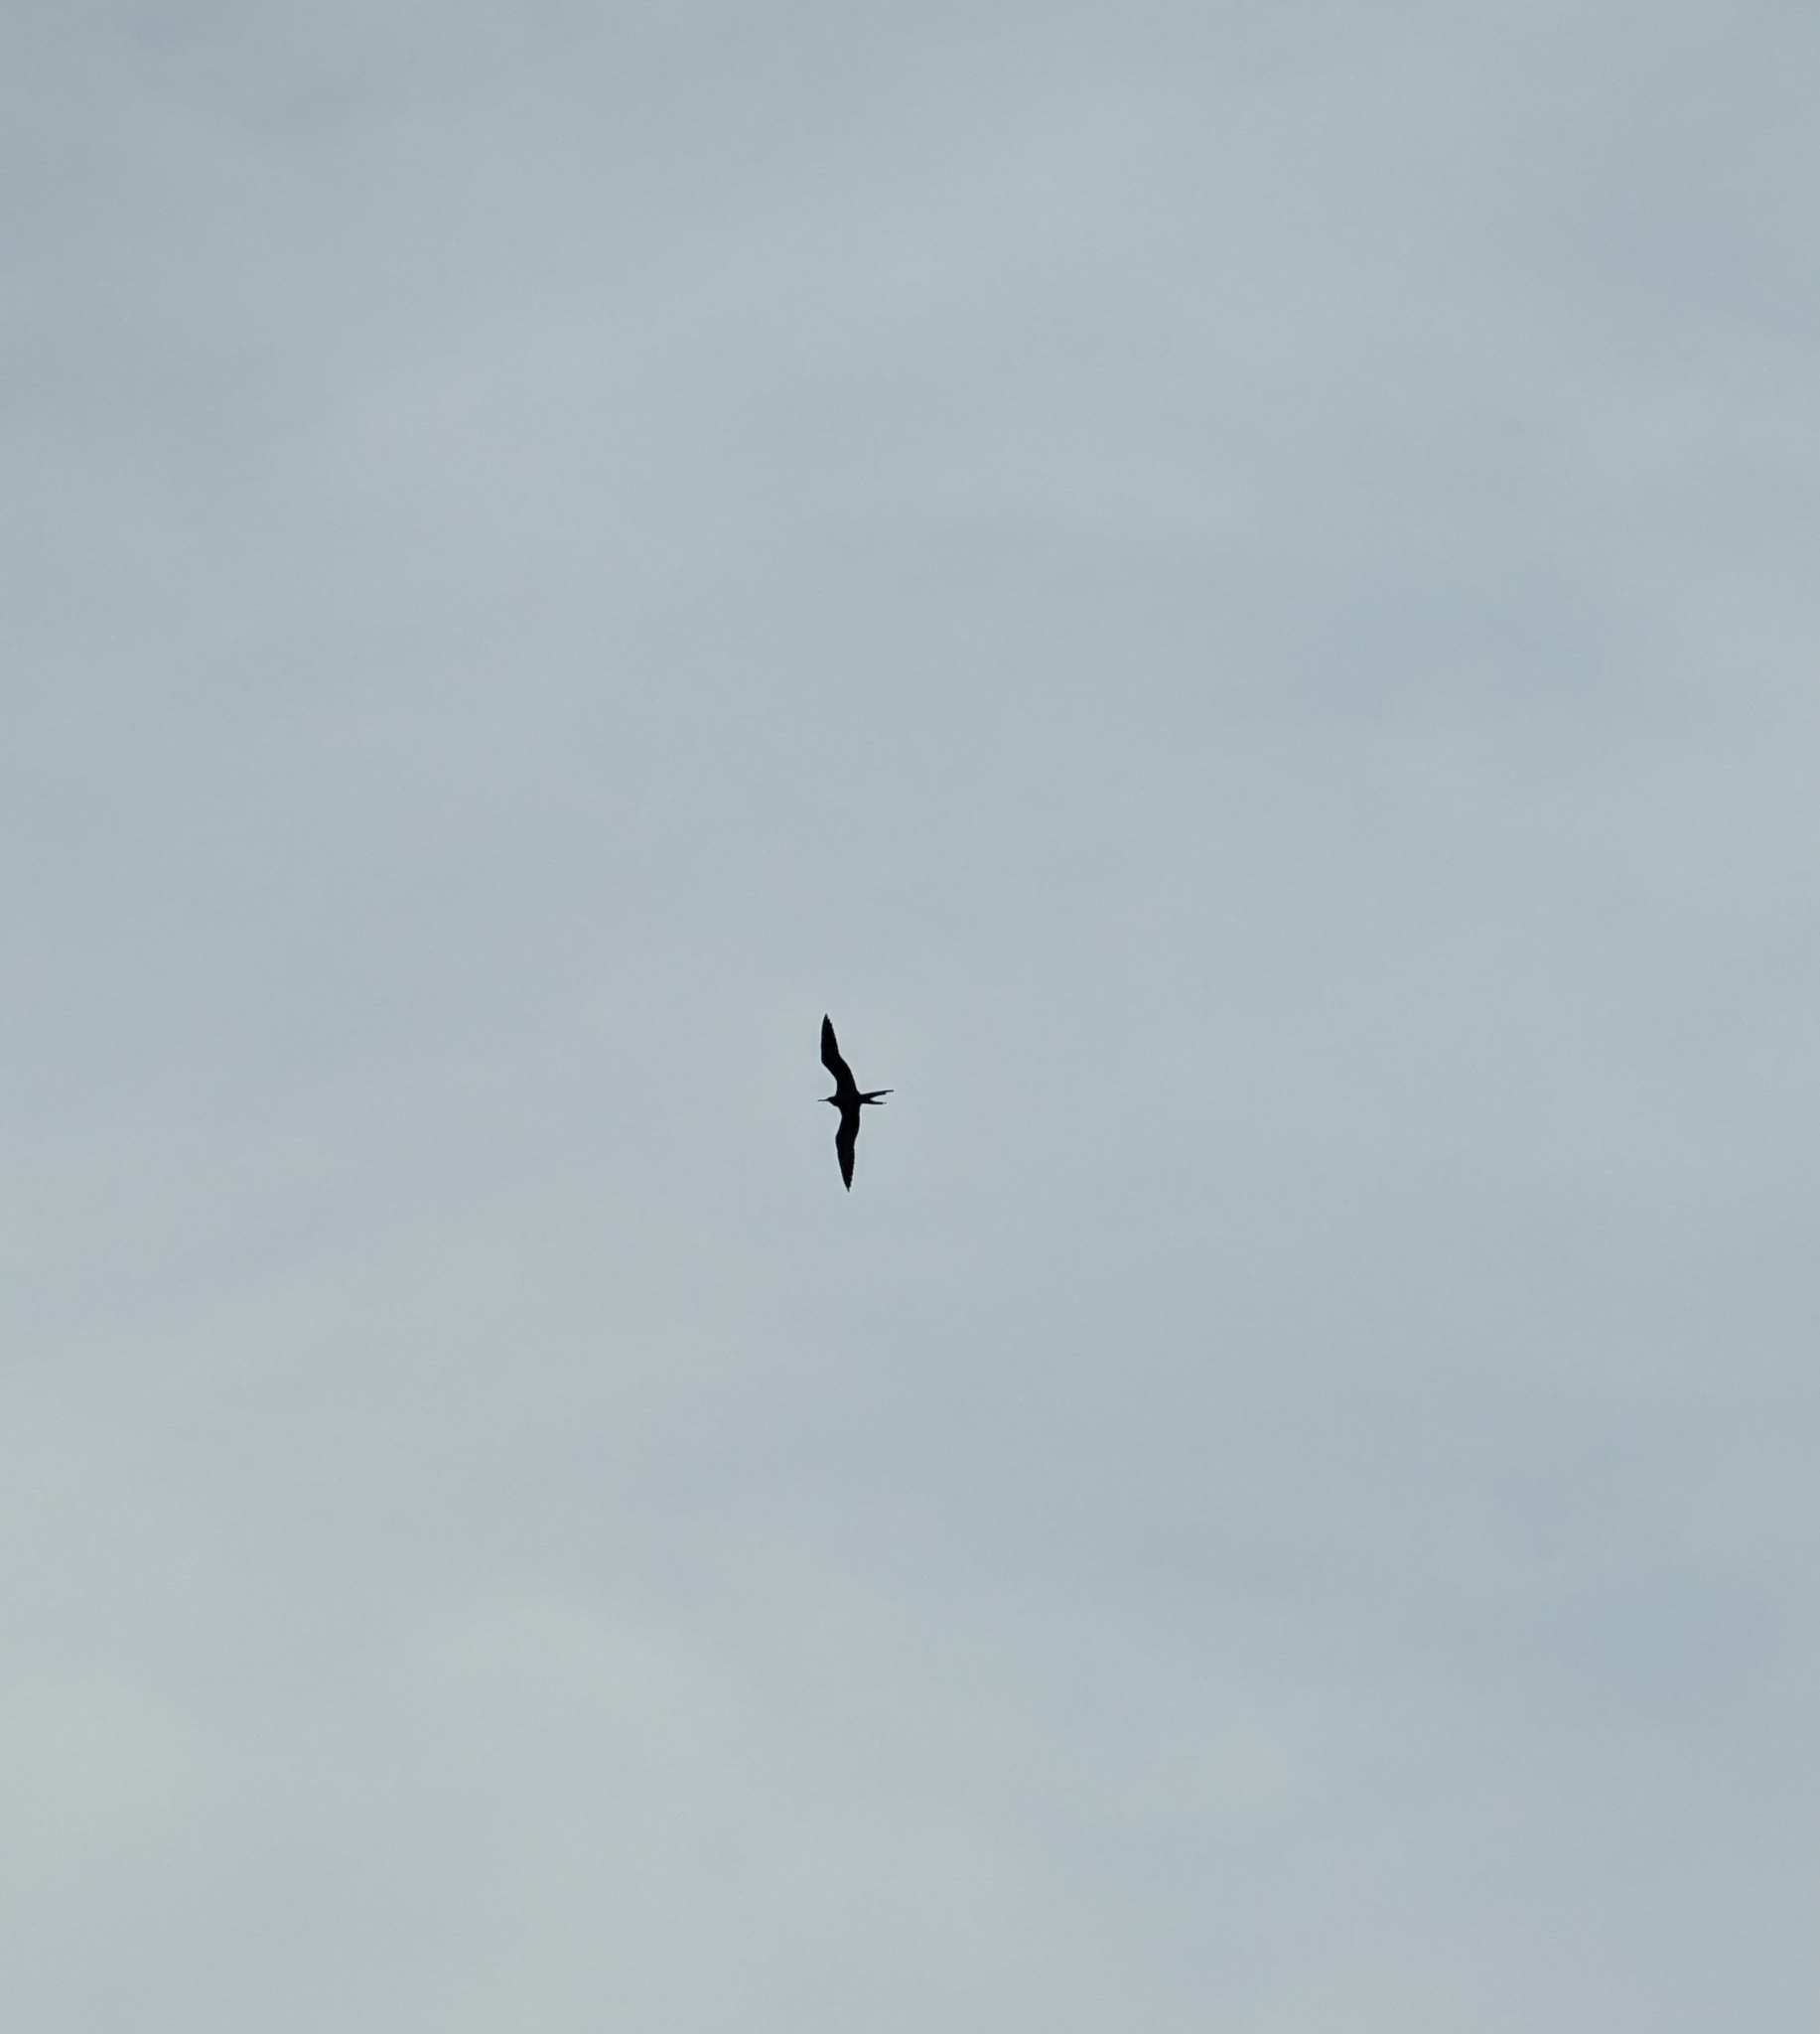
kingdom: Animalia
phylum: Chordata
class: Aves
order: Suliformes
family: Fregatidae
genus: Fregata
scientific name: Fregata magnificens
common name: Magnificent frigatebird
